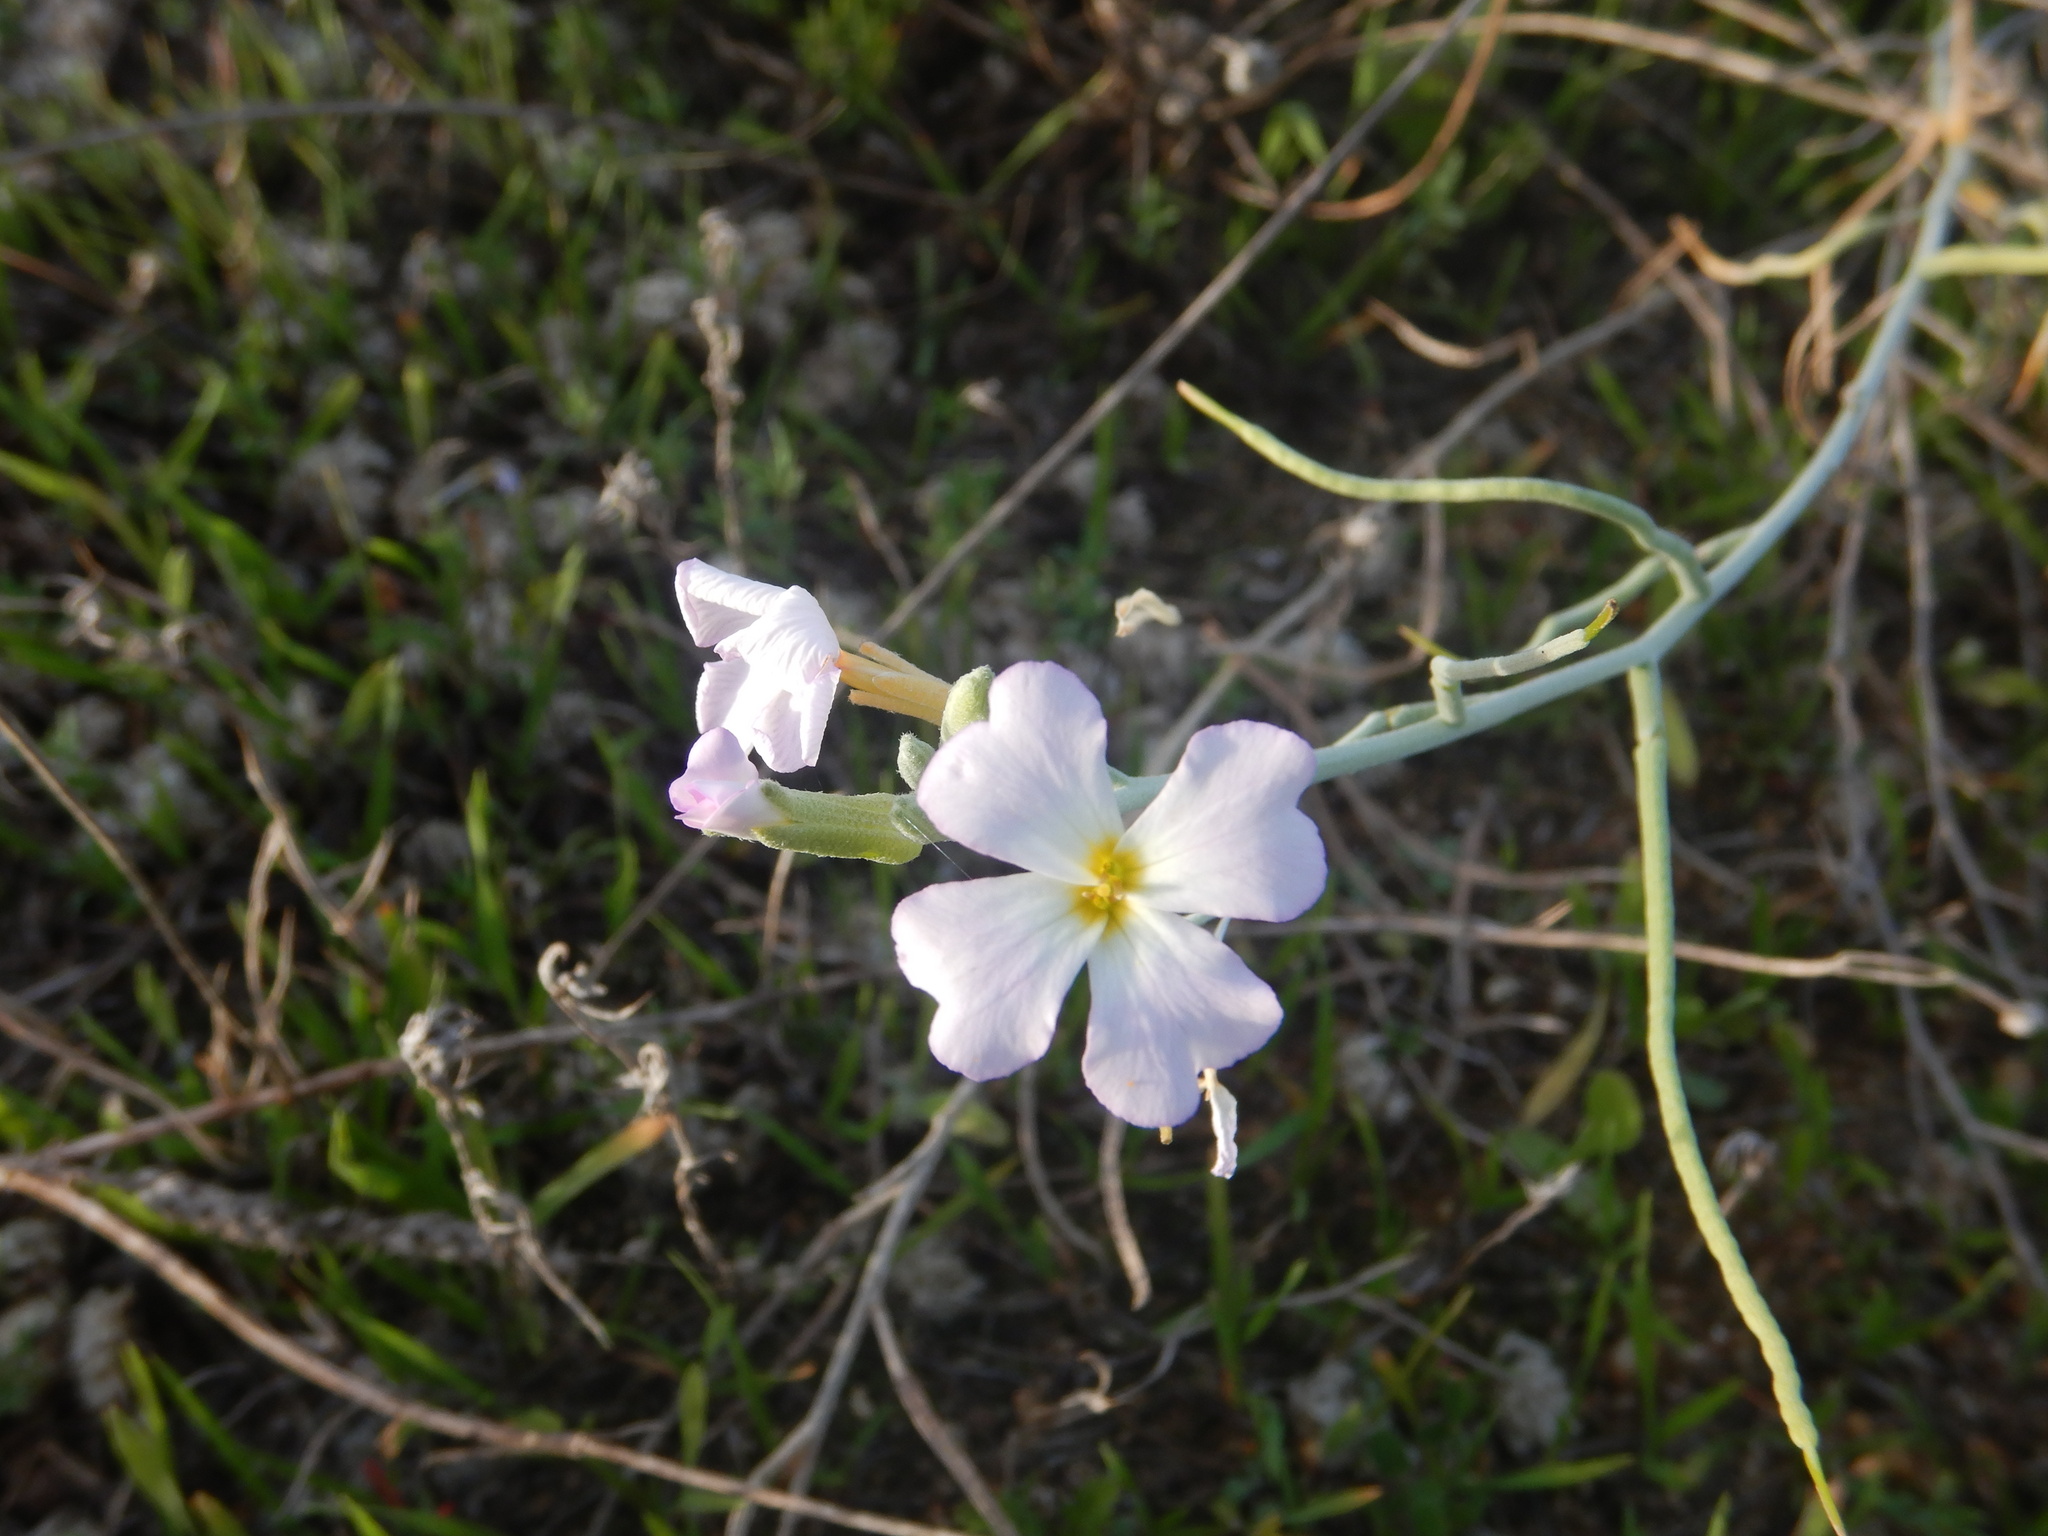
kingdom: Plantae
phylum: Tracheophyta
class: Magnoliopsida
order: Brassicales
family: Brassicaceae
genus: Marcuskochia
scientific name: Marcuskochia littorea
